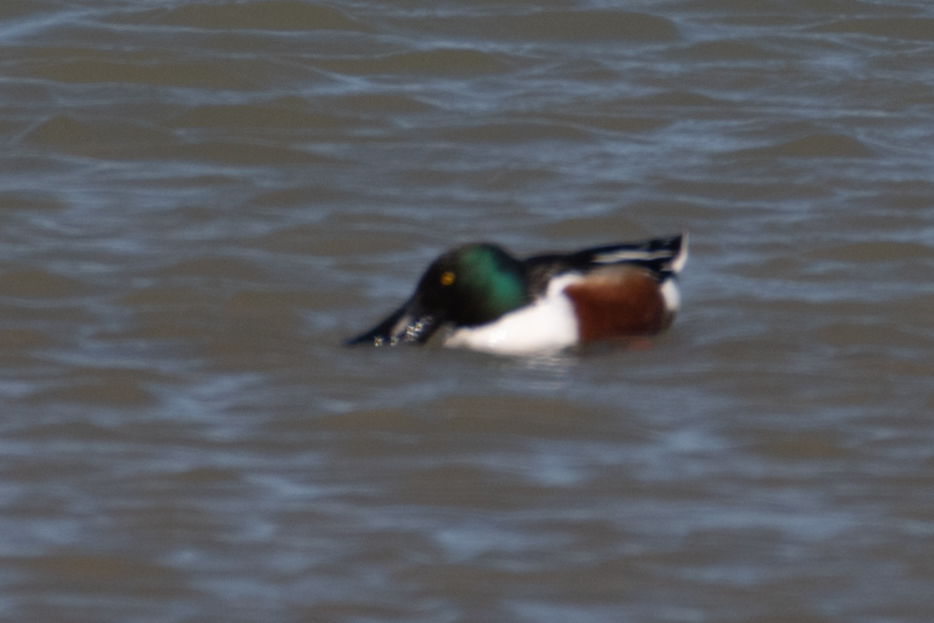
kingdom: Animalia
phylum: Chordata
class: Aves
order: Anseriformes
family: Anatidae
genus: Spatula
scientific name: Spatula clypeata
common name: Northern shoveler
